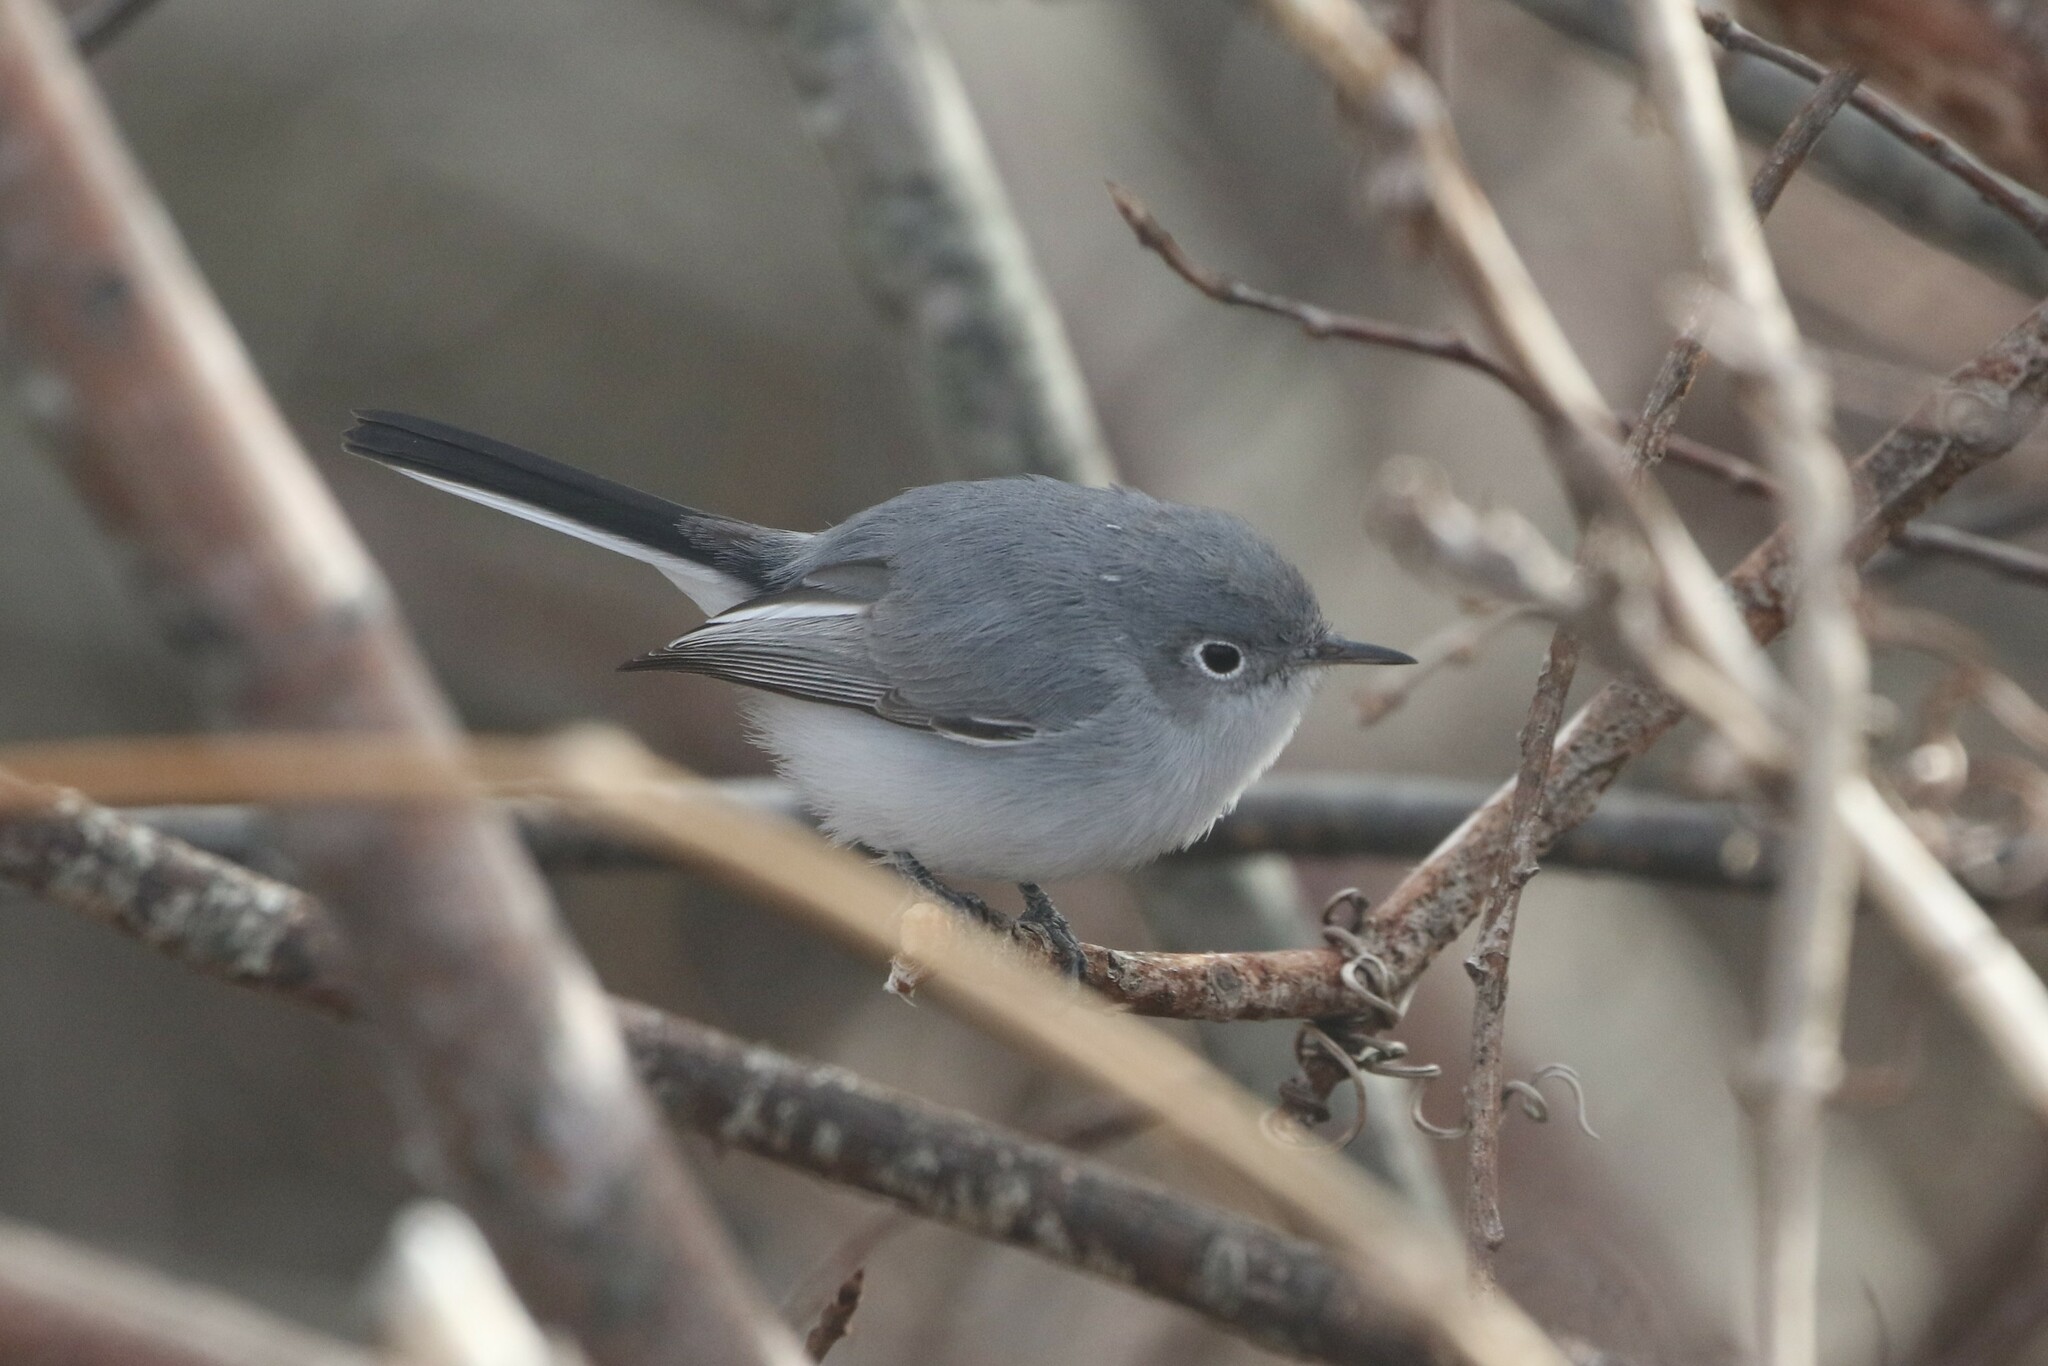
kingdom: Animalia
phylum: Chordata
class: Aves
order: Passeriformes
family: Polioptilidae
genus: Polioptila
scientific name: Polioptila caerulea
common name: Blue-gray gnatcatcher
